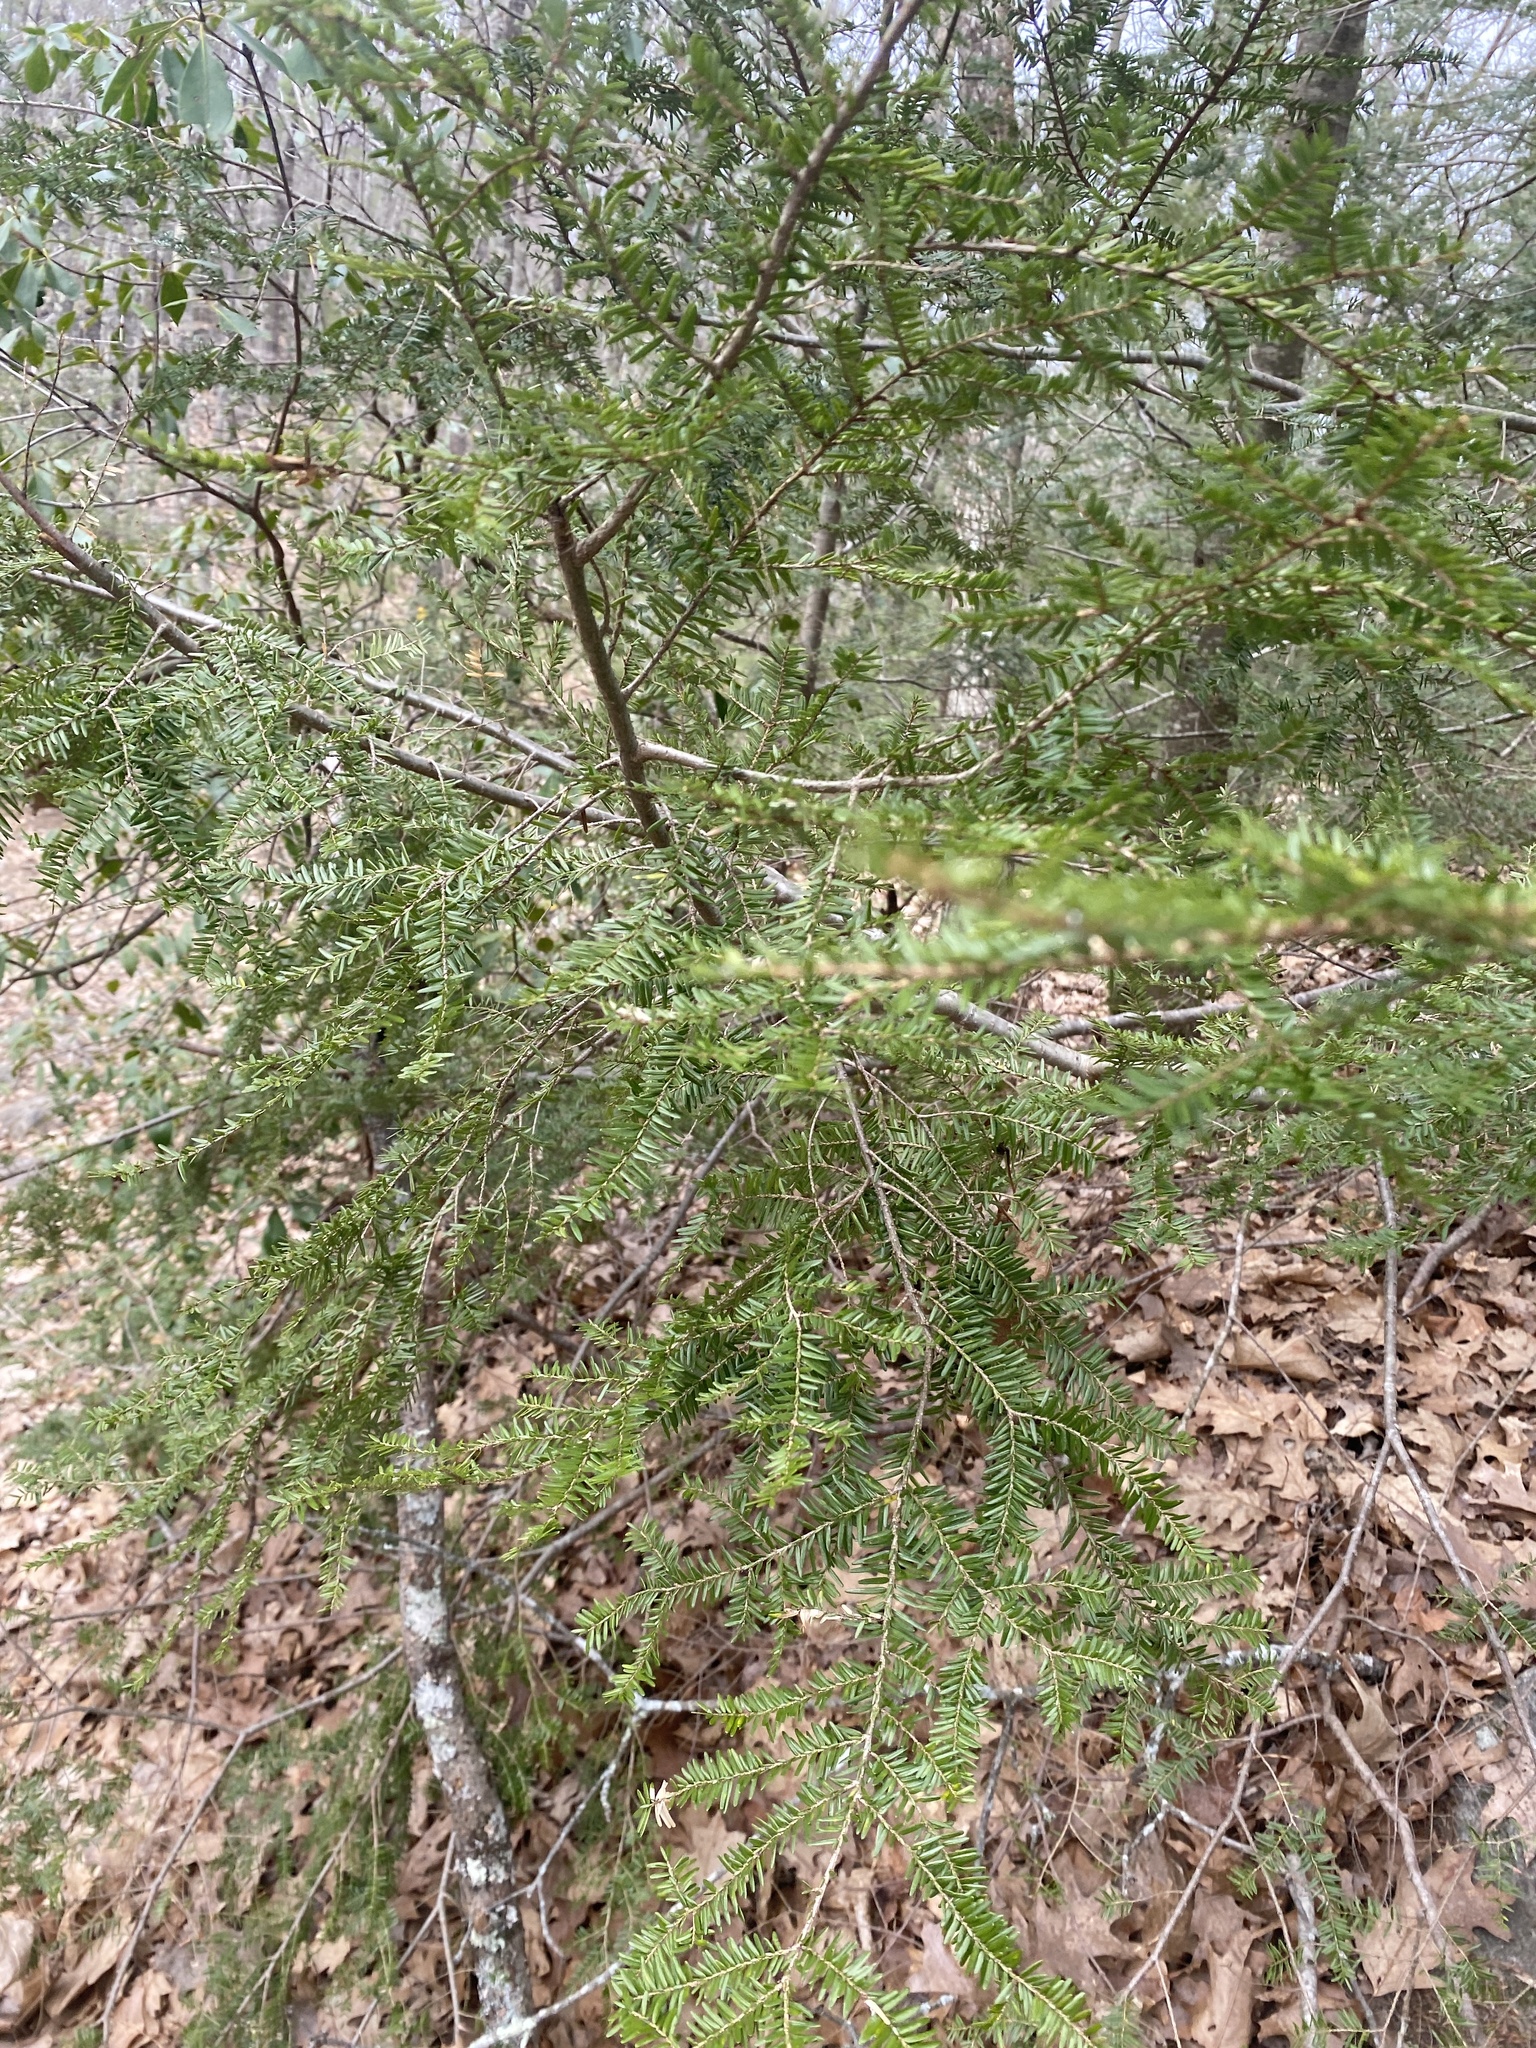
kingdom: Plantae
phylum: Tracheophyta
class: Pinopsida
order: Pinales
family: Pinaceae
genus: Tsuga
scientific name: Tsuga canadensis
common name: Eastern hemlock
